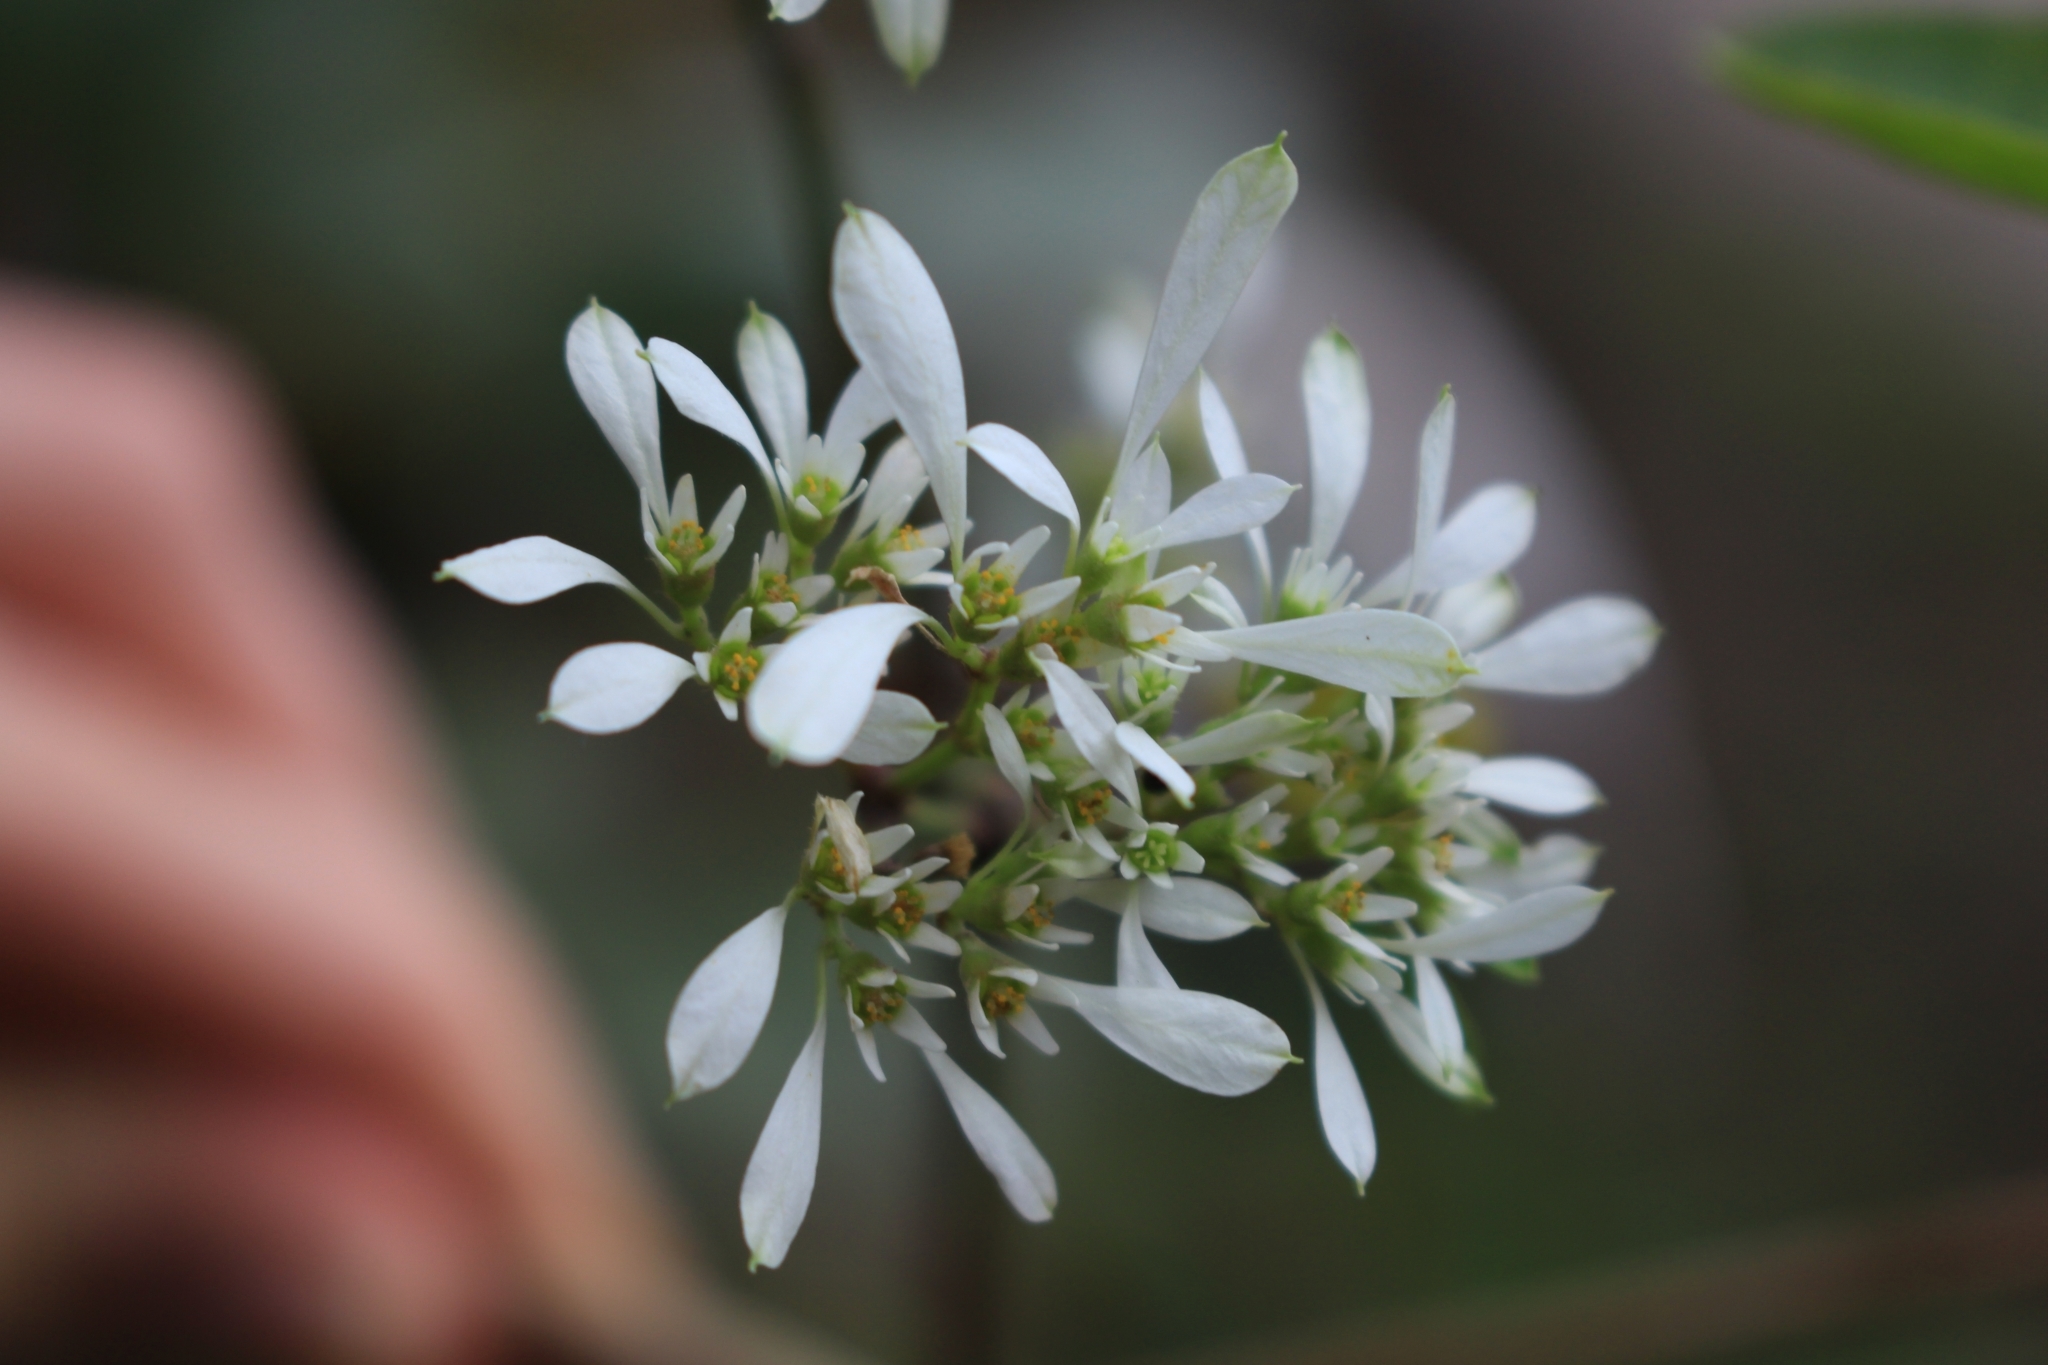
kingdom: Plantae
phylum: Tracheophyta
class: Magnoliopsida
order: Malpighiales
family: Euphorbiaceae
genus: Euphorbia
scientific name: Euphorbia leucocephala
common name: Pascuita
